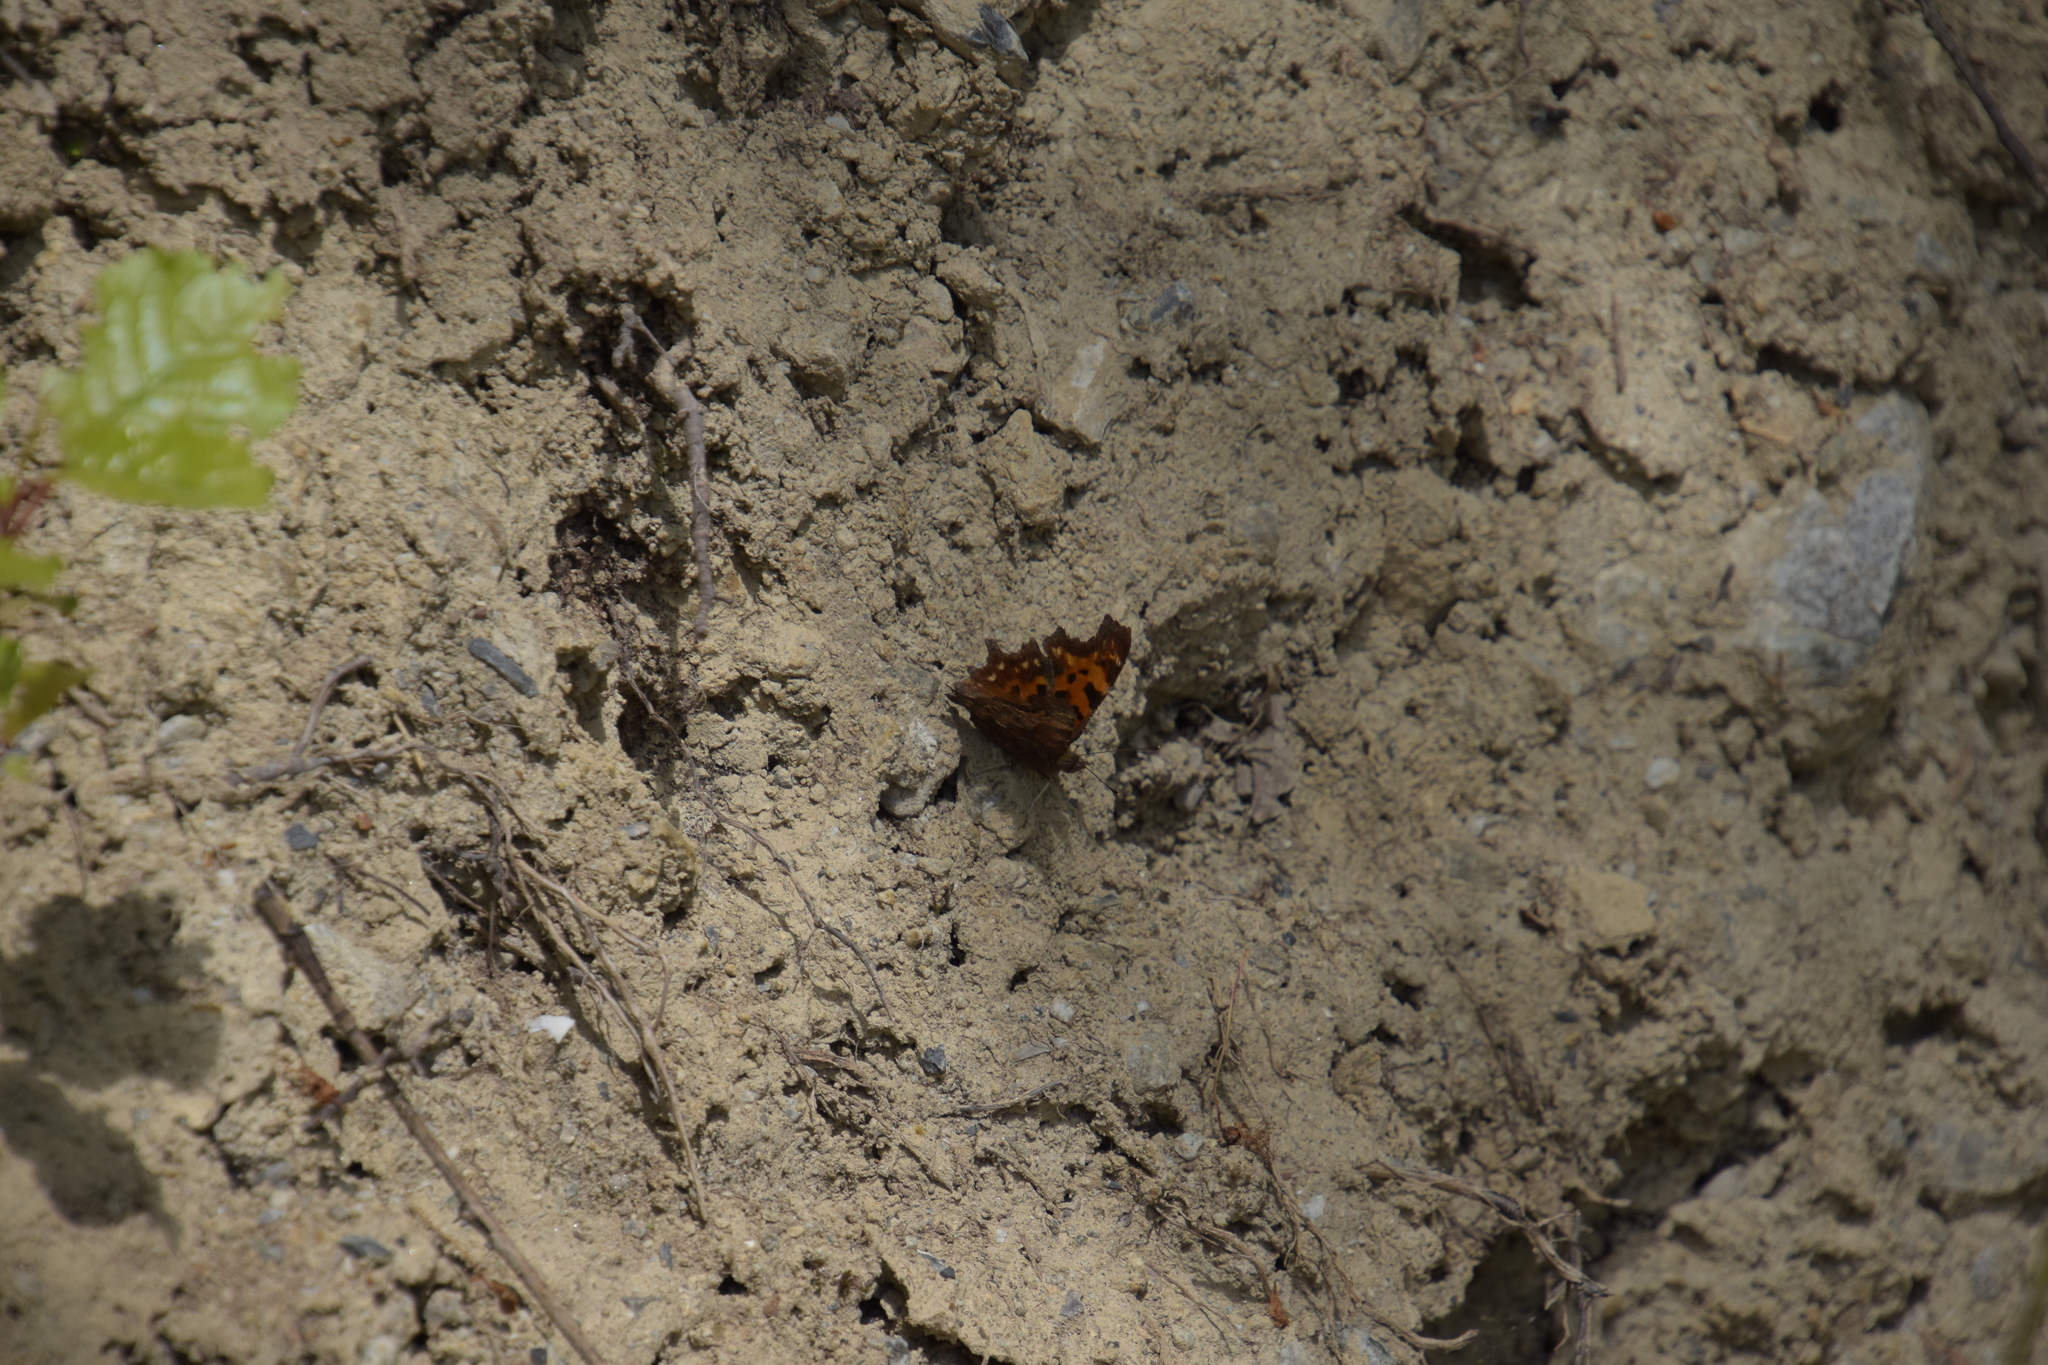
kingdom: Animalia
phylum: Arthropoda
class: Insecta
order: Lepidoptera
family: Nymphalidae
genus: Polygonia
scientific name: Polygonia c-album
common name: Comma
